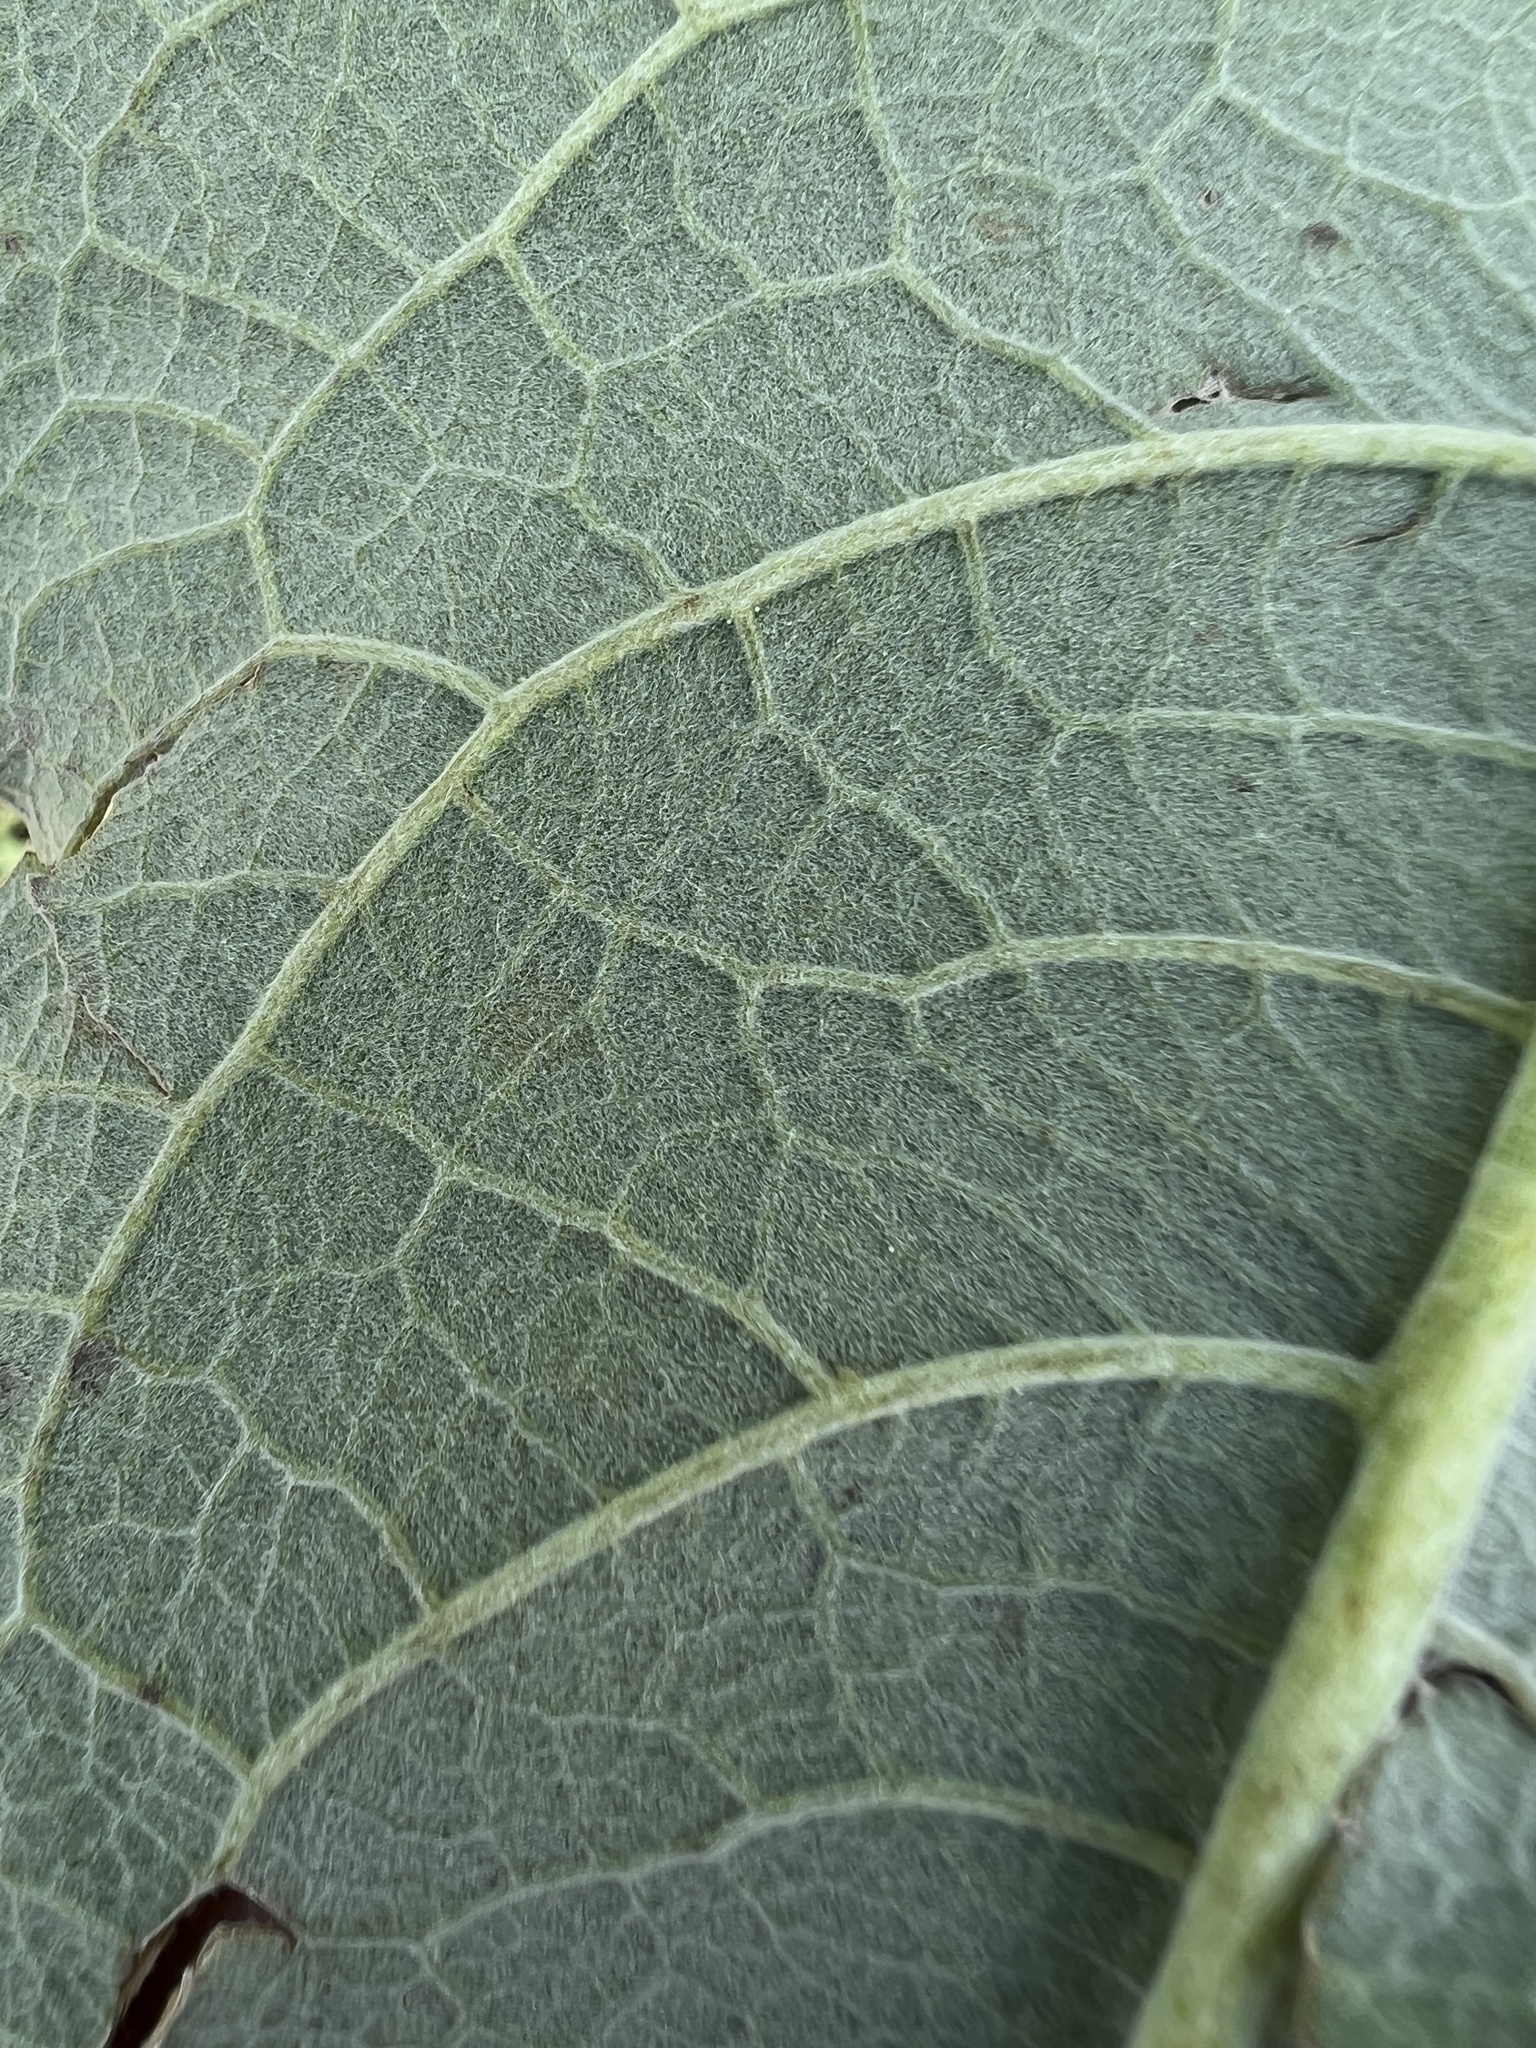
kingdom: Plantae
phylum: Tracheophyta
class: Magnoliopsida
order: Asterales
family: Asteraceae
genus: Wyethia
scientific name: Wyethia sagittata
